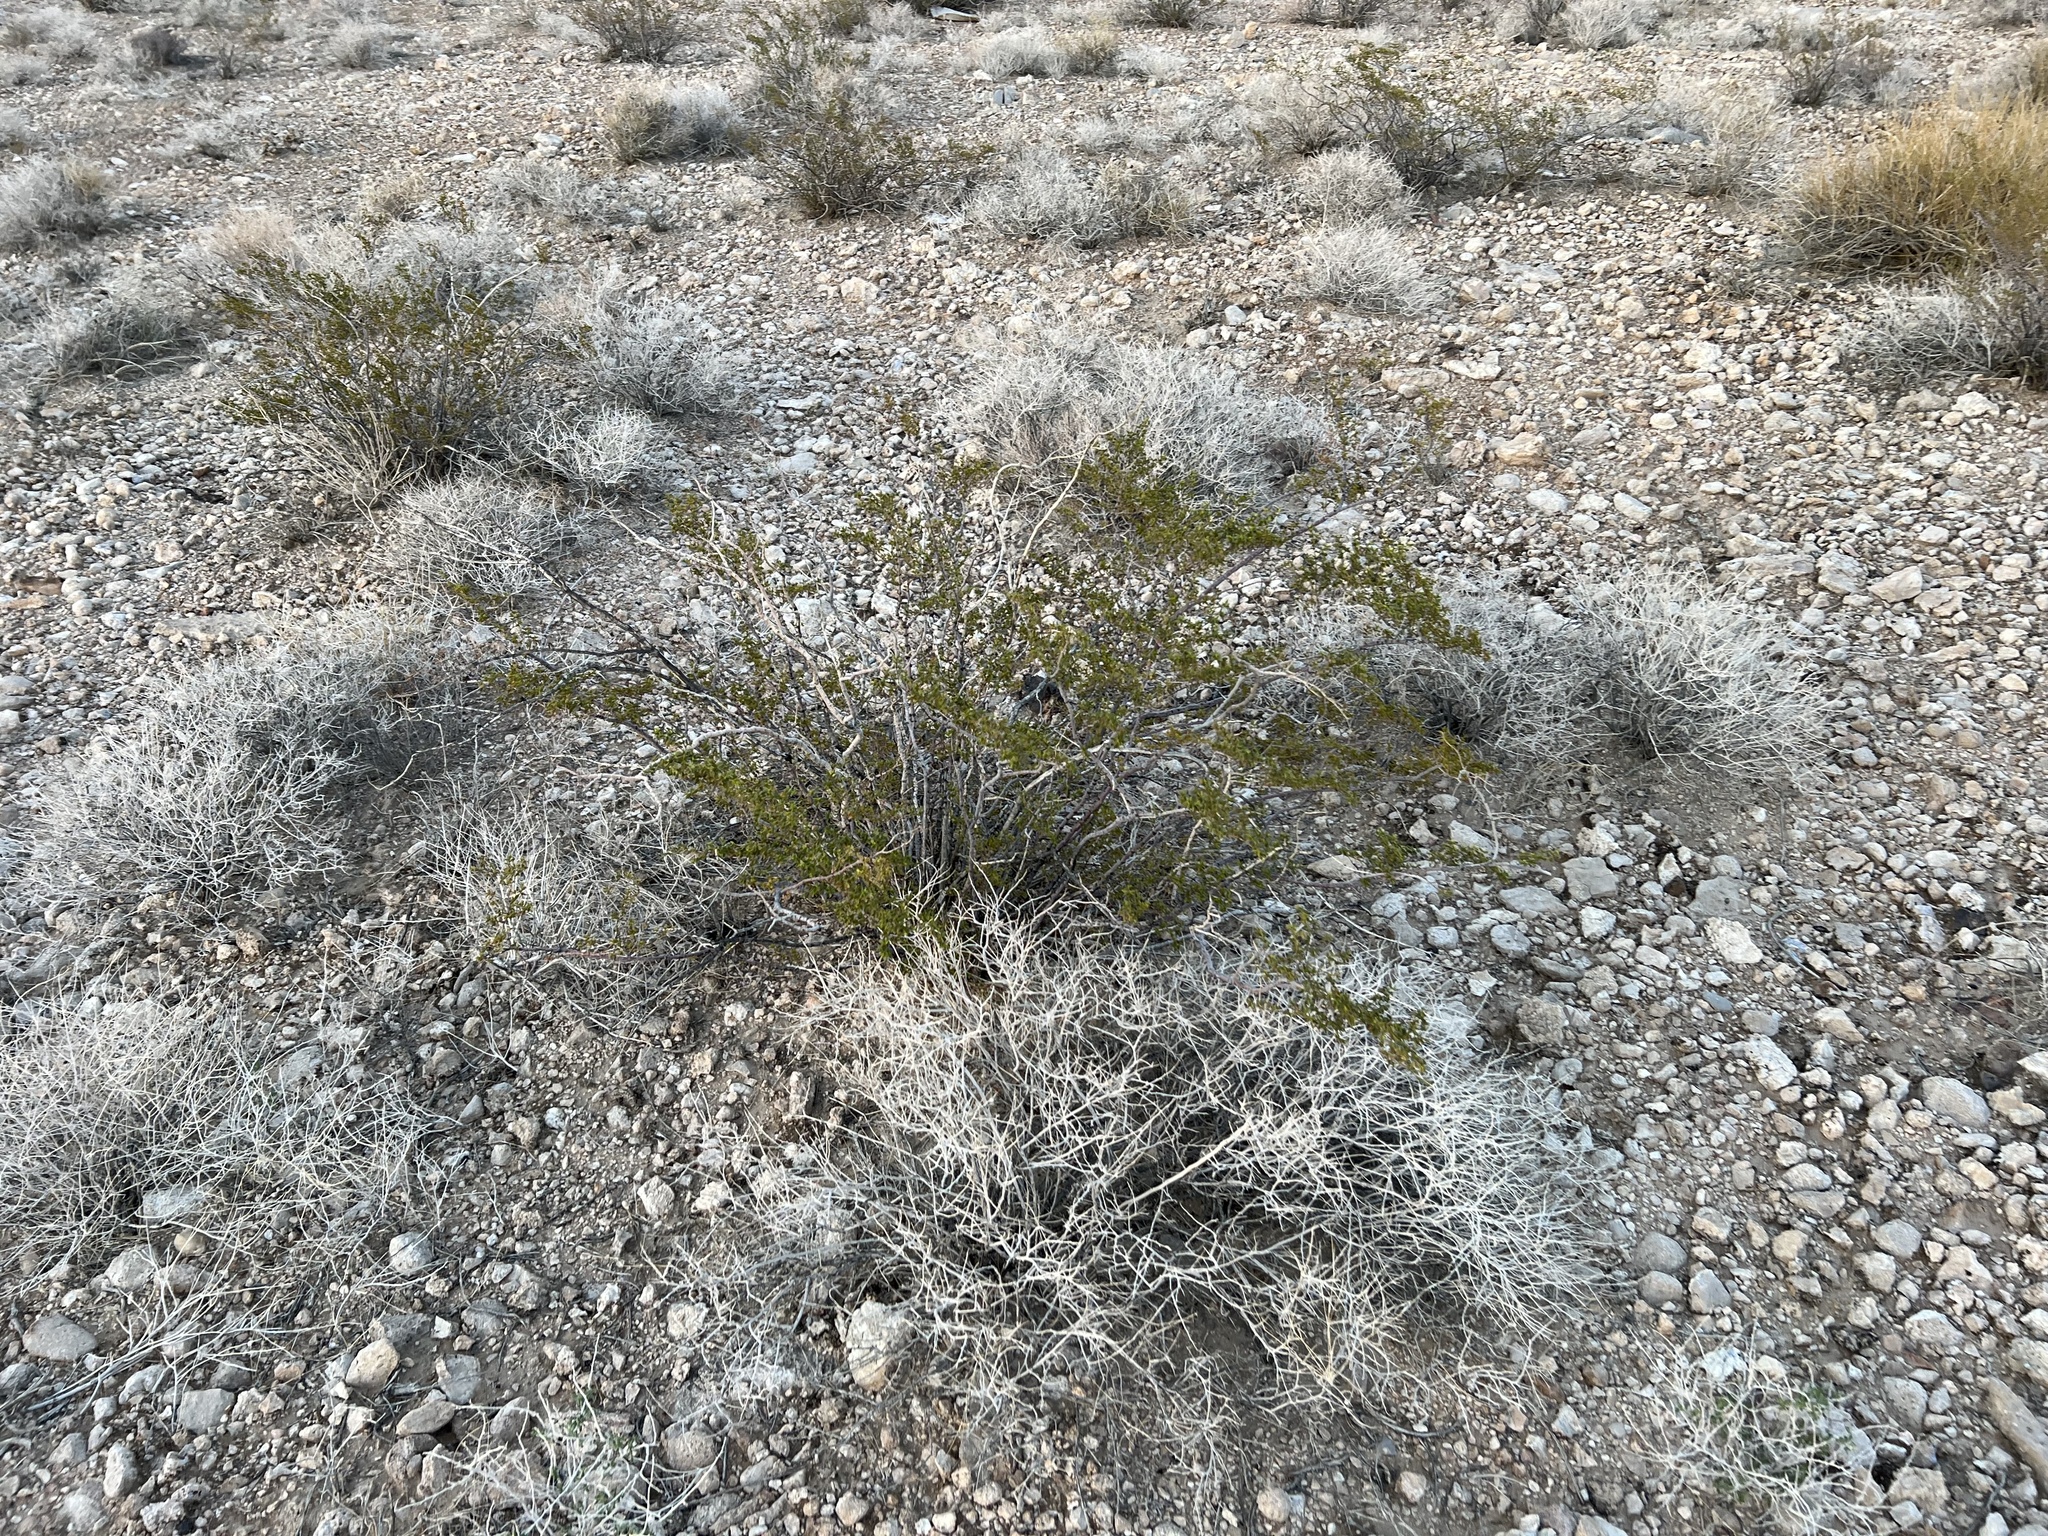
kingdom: Plantae
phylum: Tracheophyta
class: Magnoliopsida
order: Zygophyllales
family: Zygophyllaceae
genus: Larrea
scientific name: Larrea tridentata
